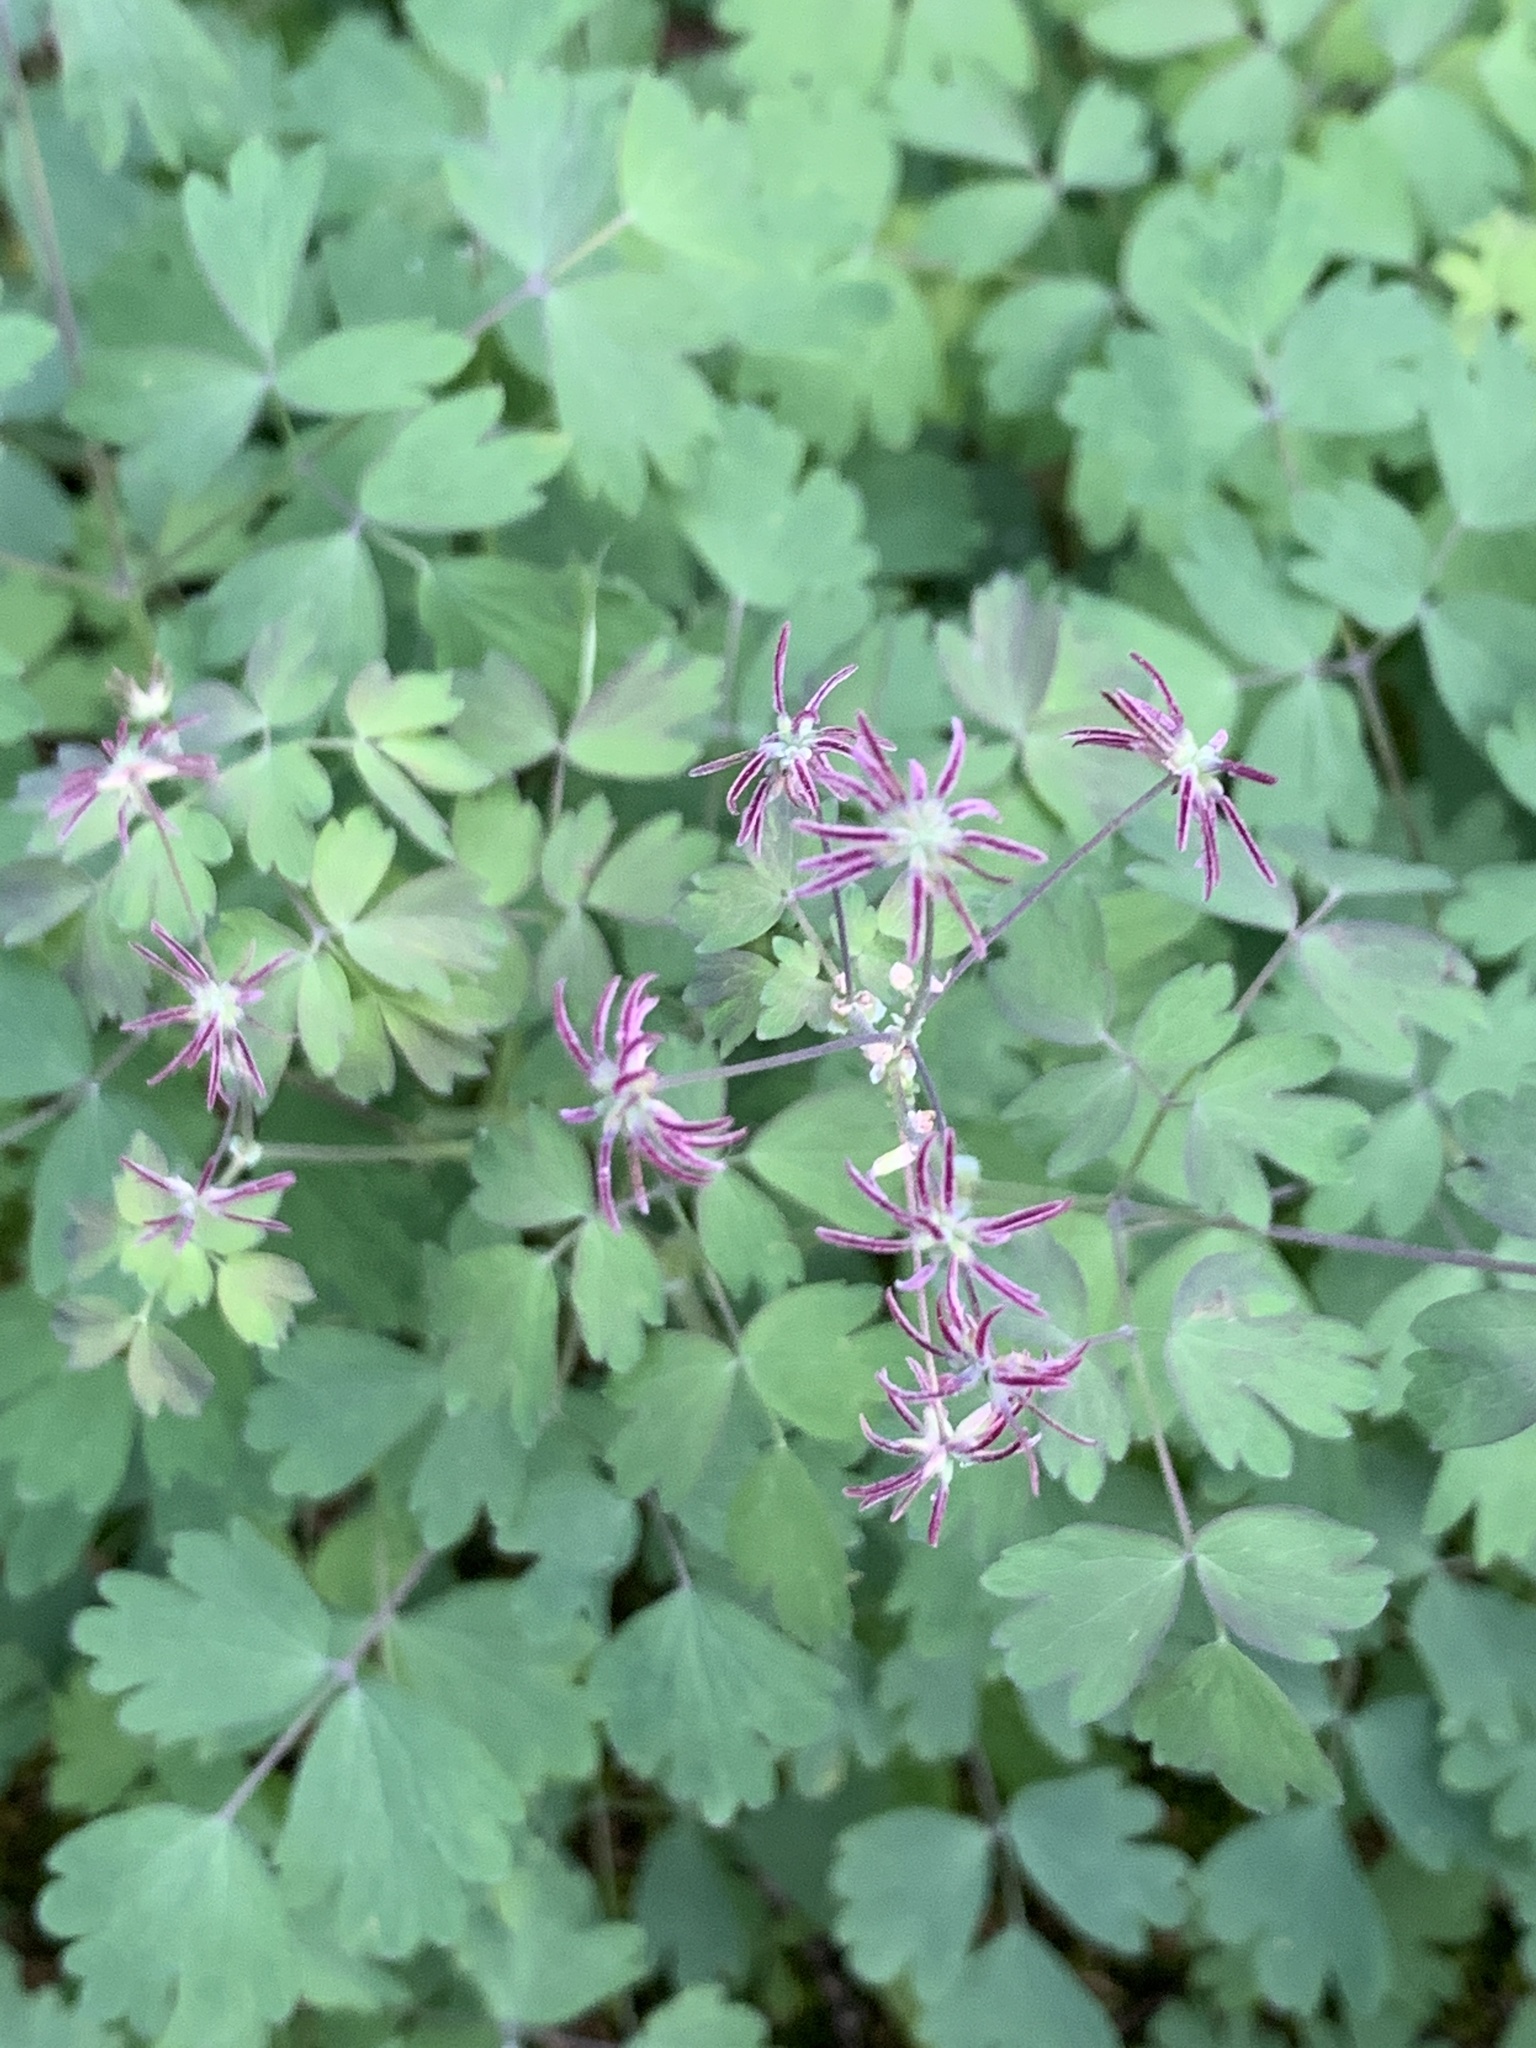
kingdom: Plantae
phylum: Tracheophyta
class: Magnoliopsida
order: Ranunculales
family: Ranunculaceae
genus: Thalictrum
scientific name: Thalictrum occidentale
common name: Western meadow-rue
